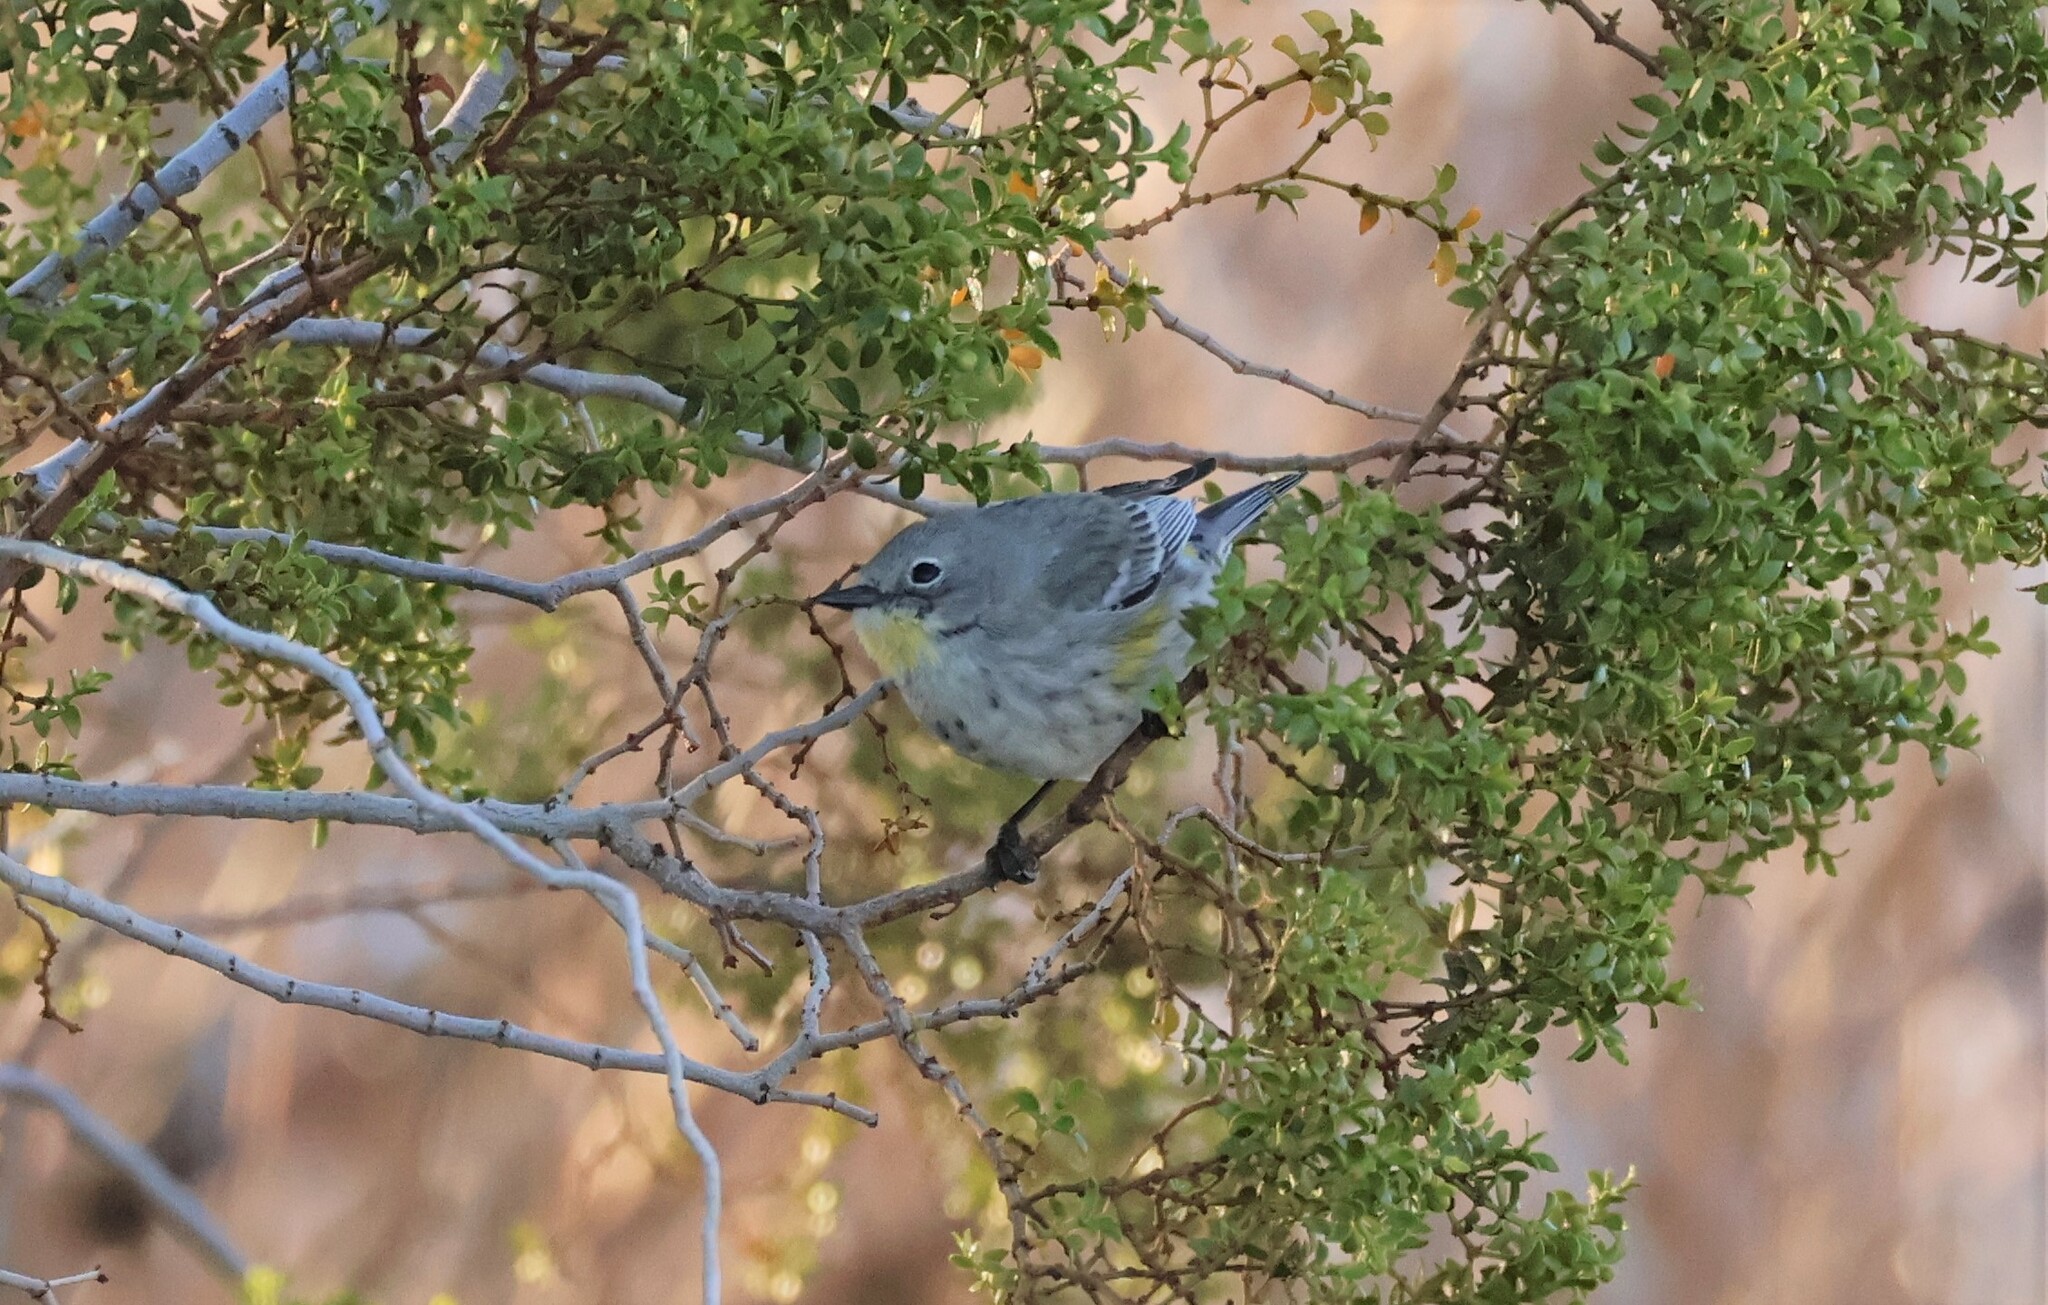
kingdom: Animalia
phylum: Chordata
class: Aves
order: Passeriformes
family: Parulidae
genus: Setophaga
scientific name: Setophaga auduboni
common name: Audubon's warbler
